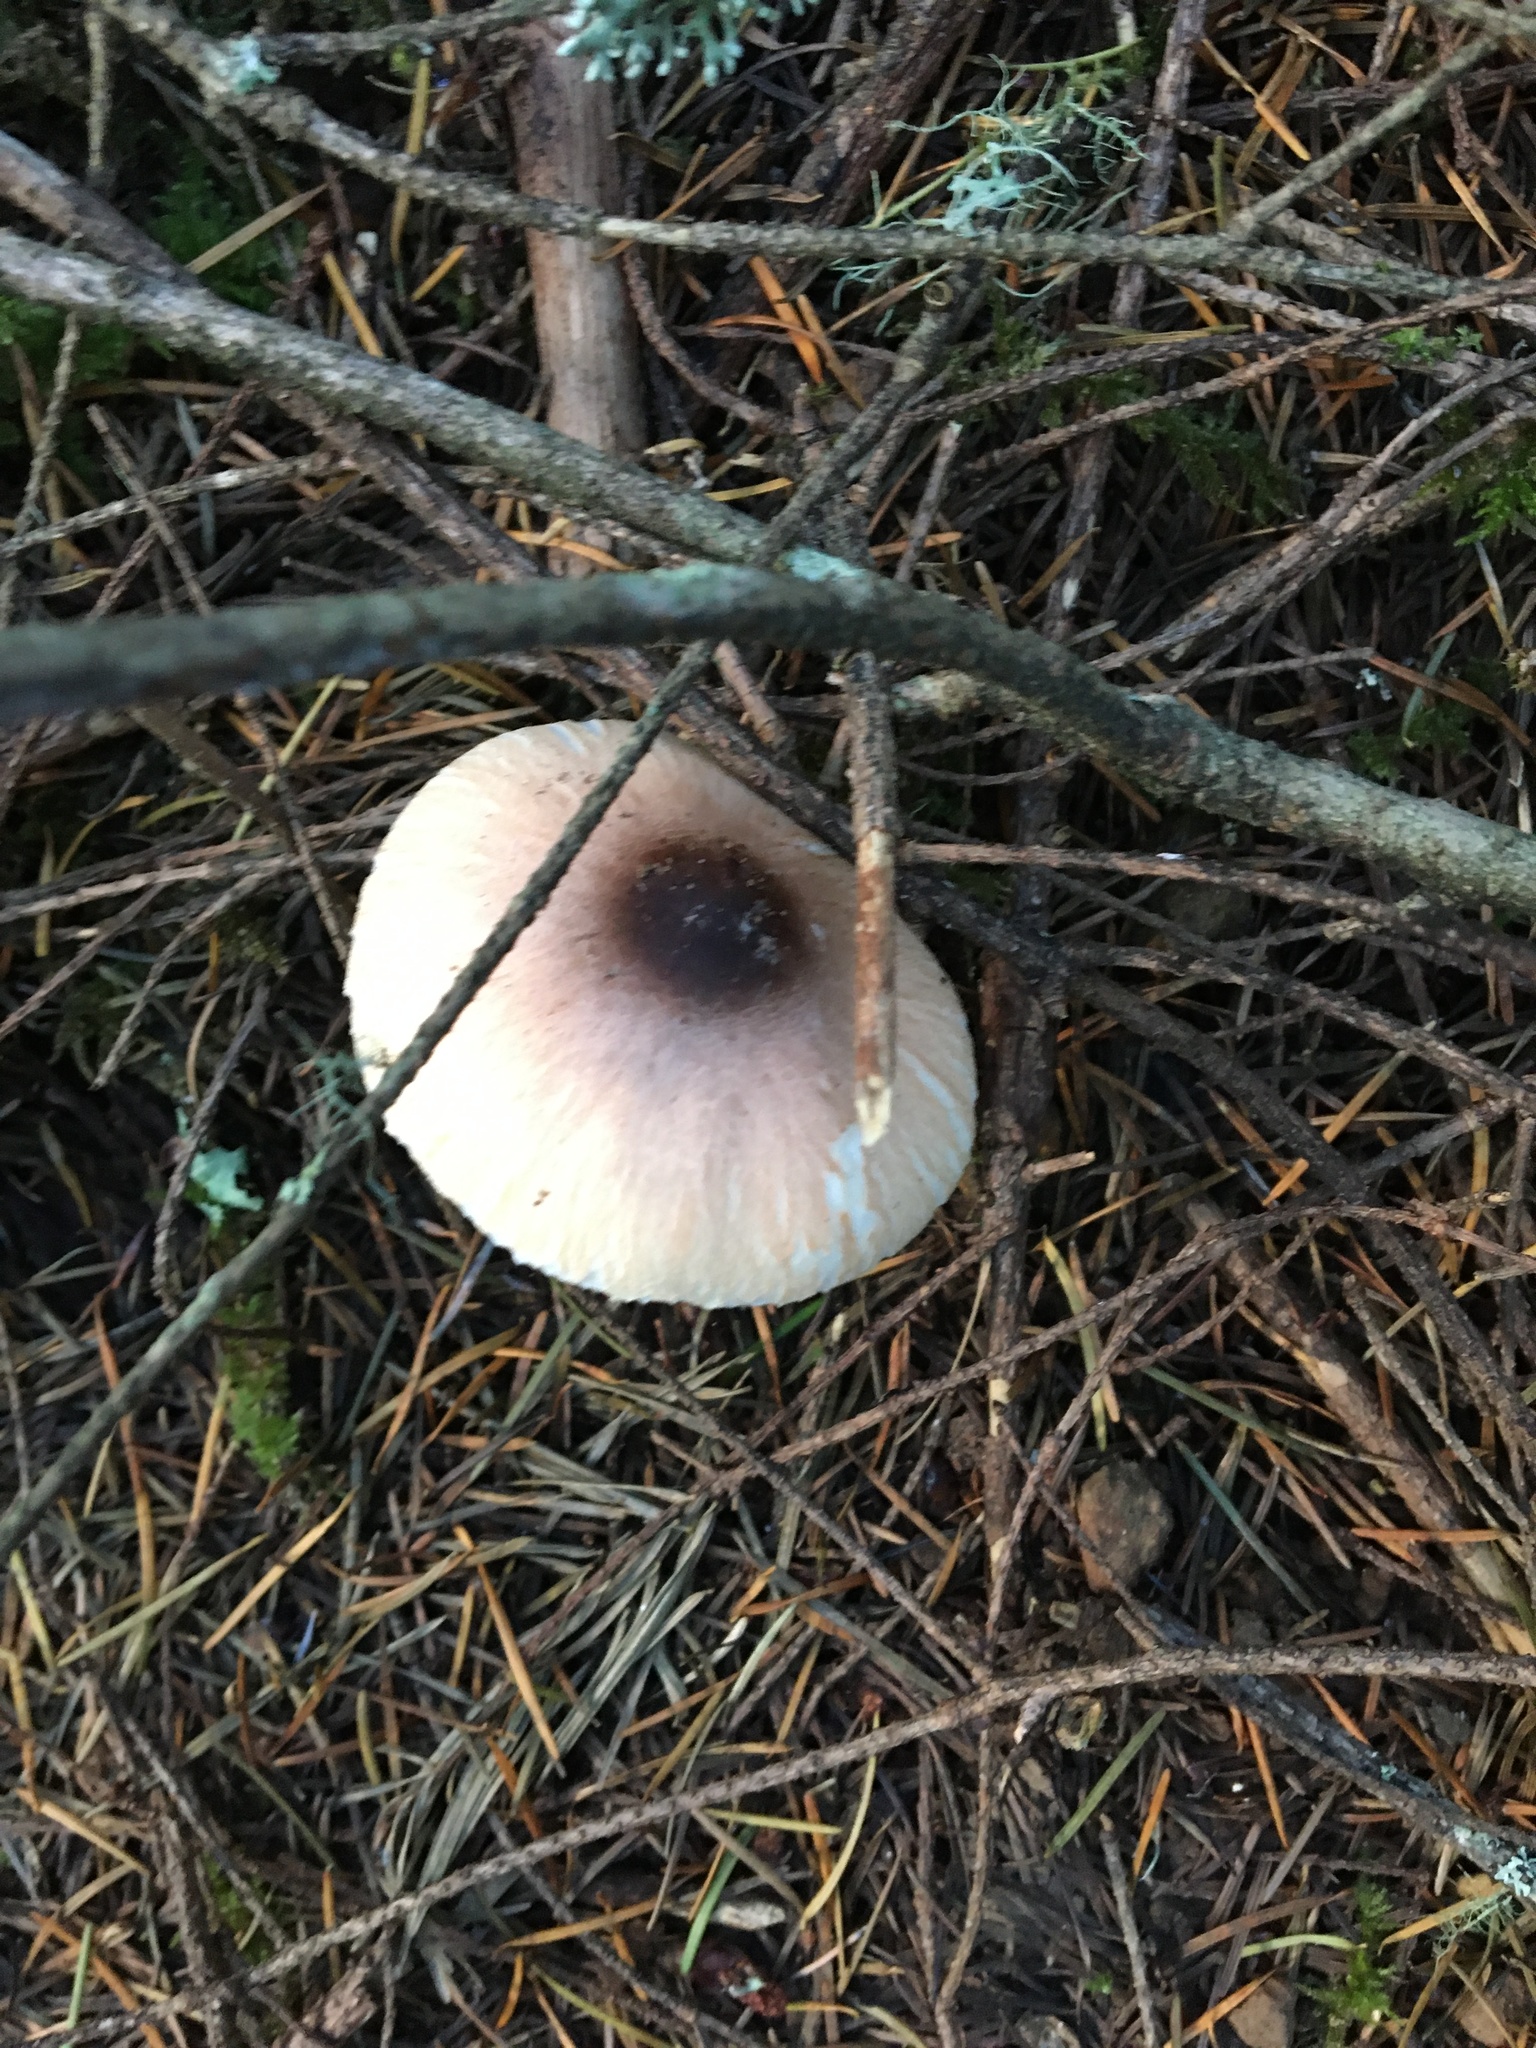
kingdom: Fungi
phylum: Basidiomycota
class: Agaricomycetes
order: Agaricales
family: Agaricaceae
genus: Lepiota
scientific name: Lepiota rubrotinctoides
